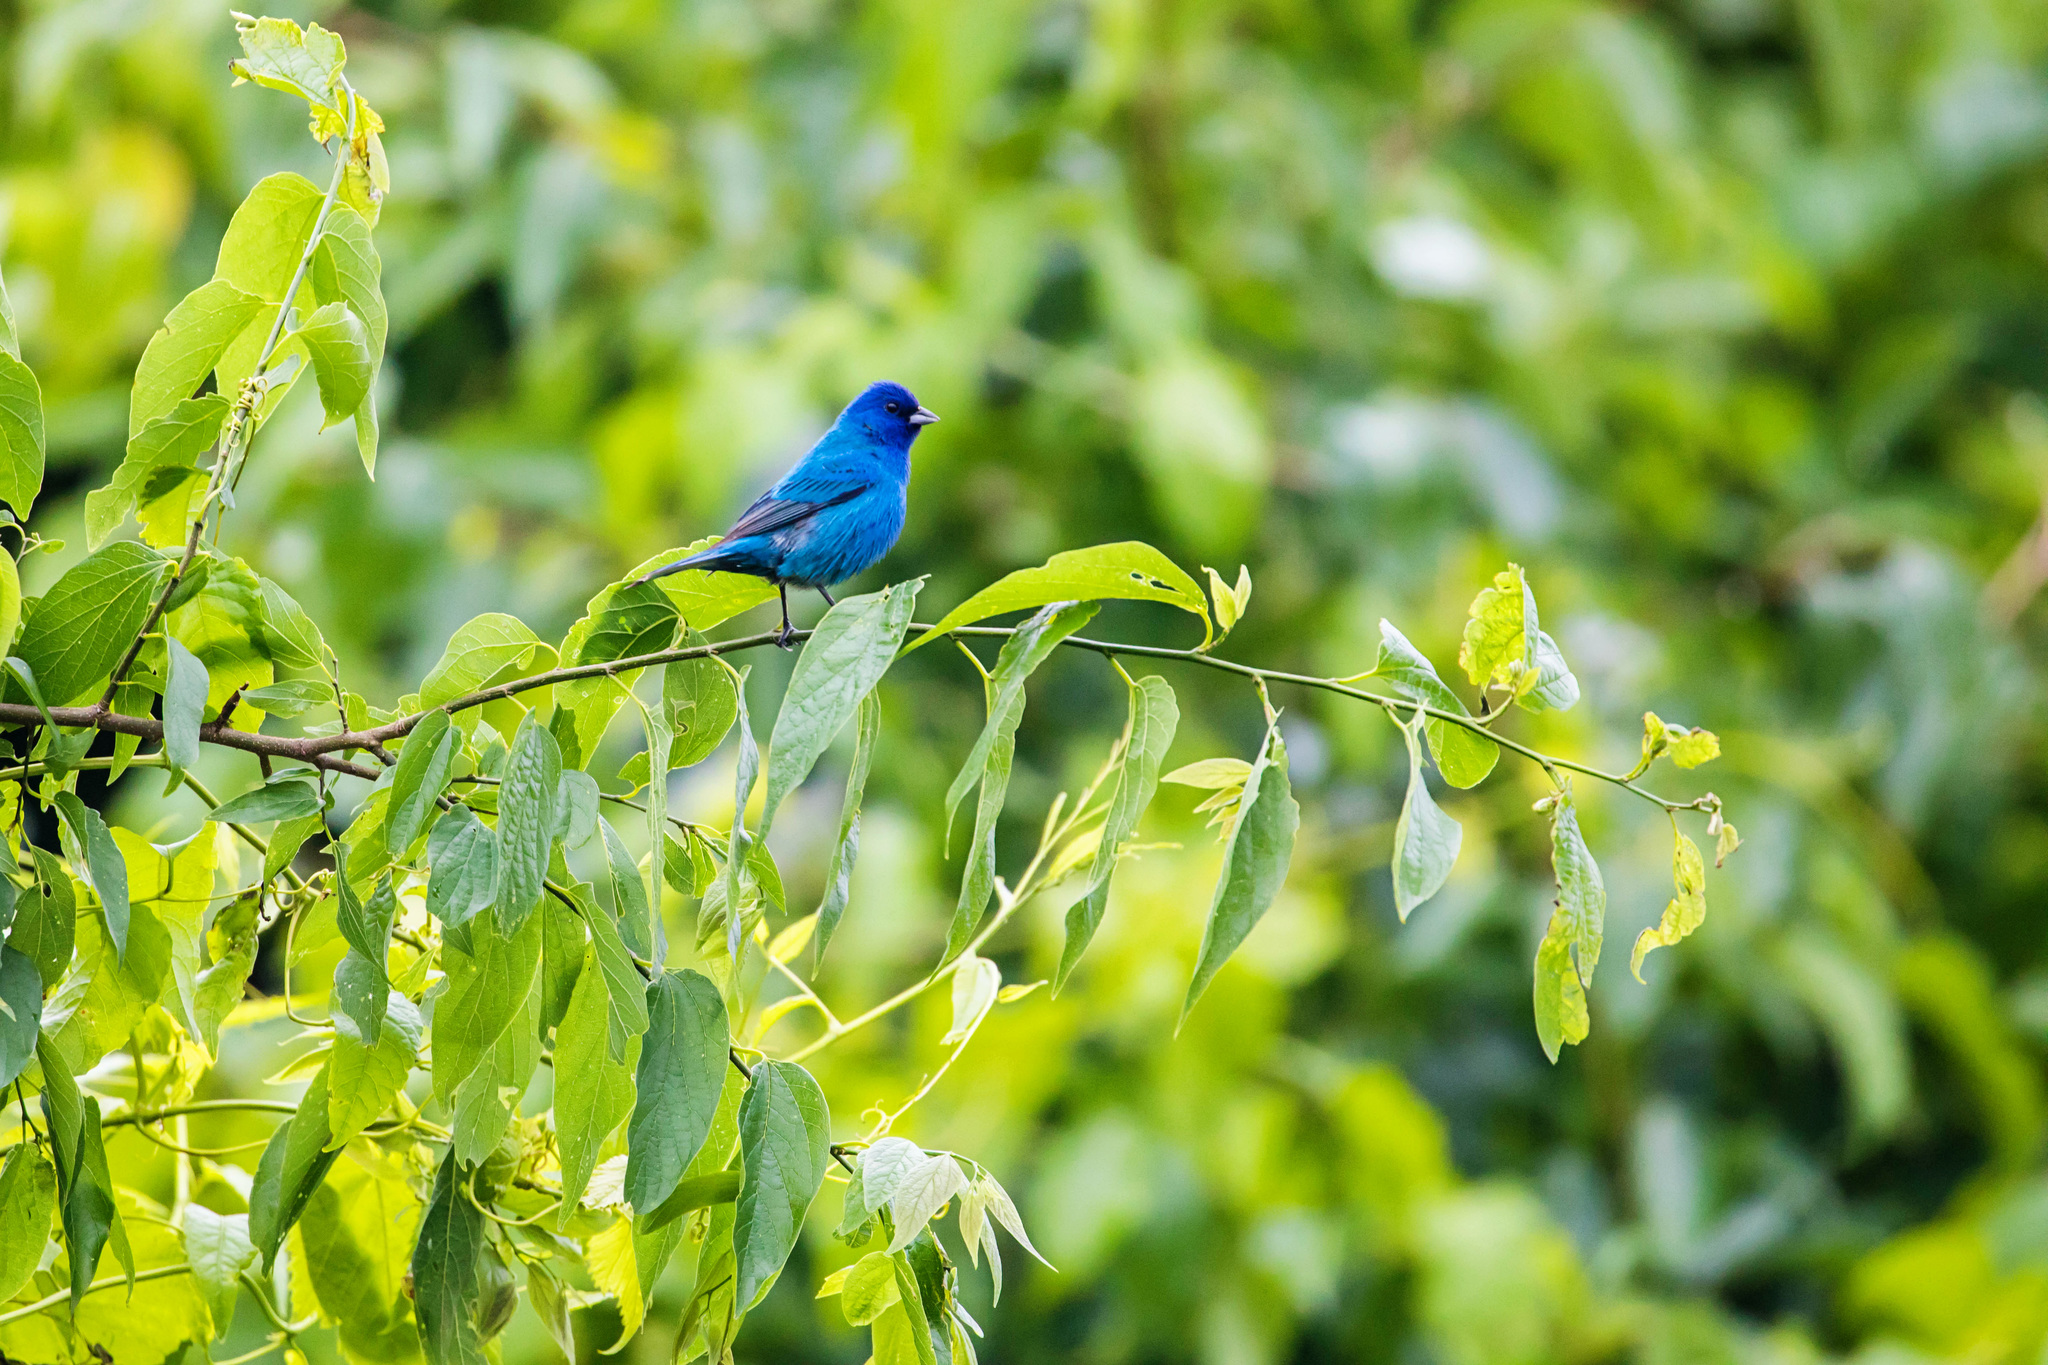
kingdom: Animalia
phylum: Chordata
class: Aves
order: Passeriformes
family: Cardinalidae
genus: Passerina
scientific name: Passerina cyanea
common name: Indigo bunting
